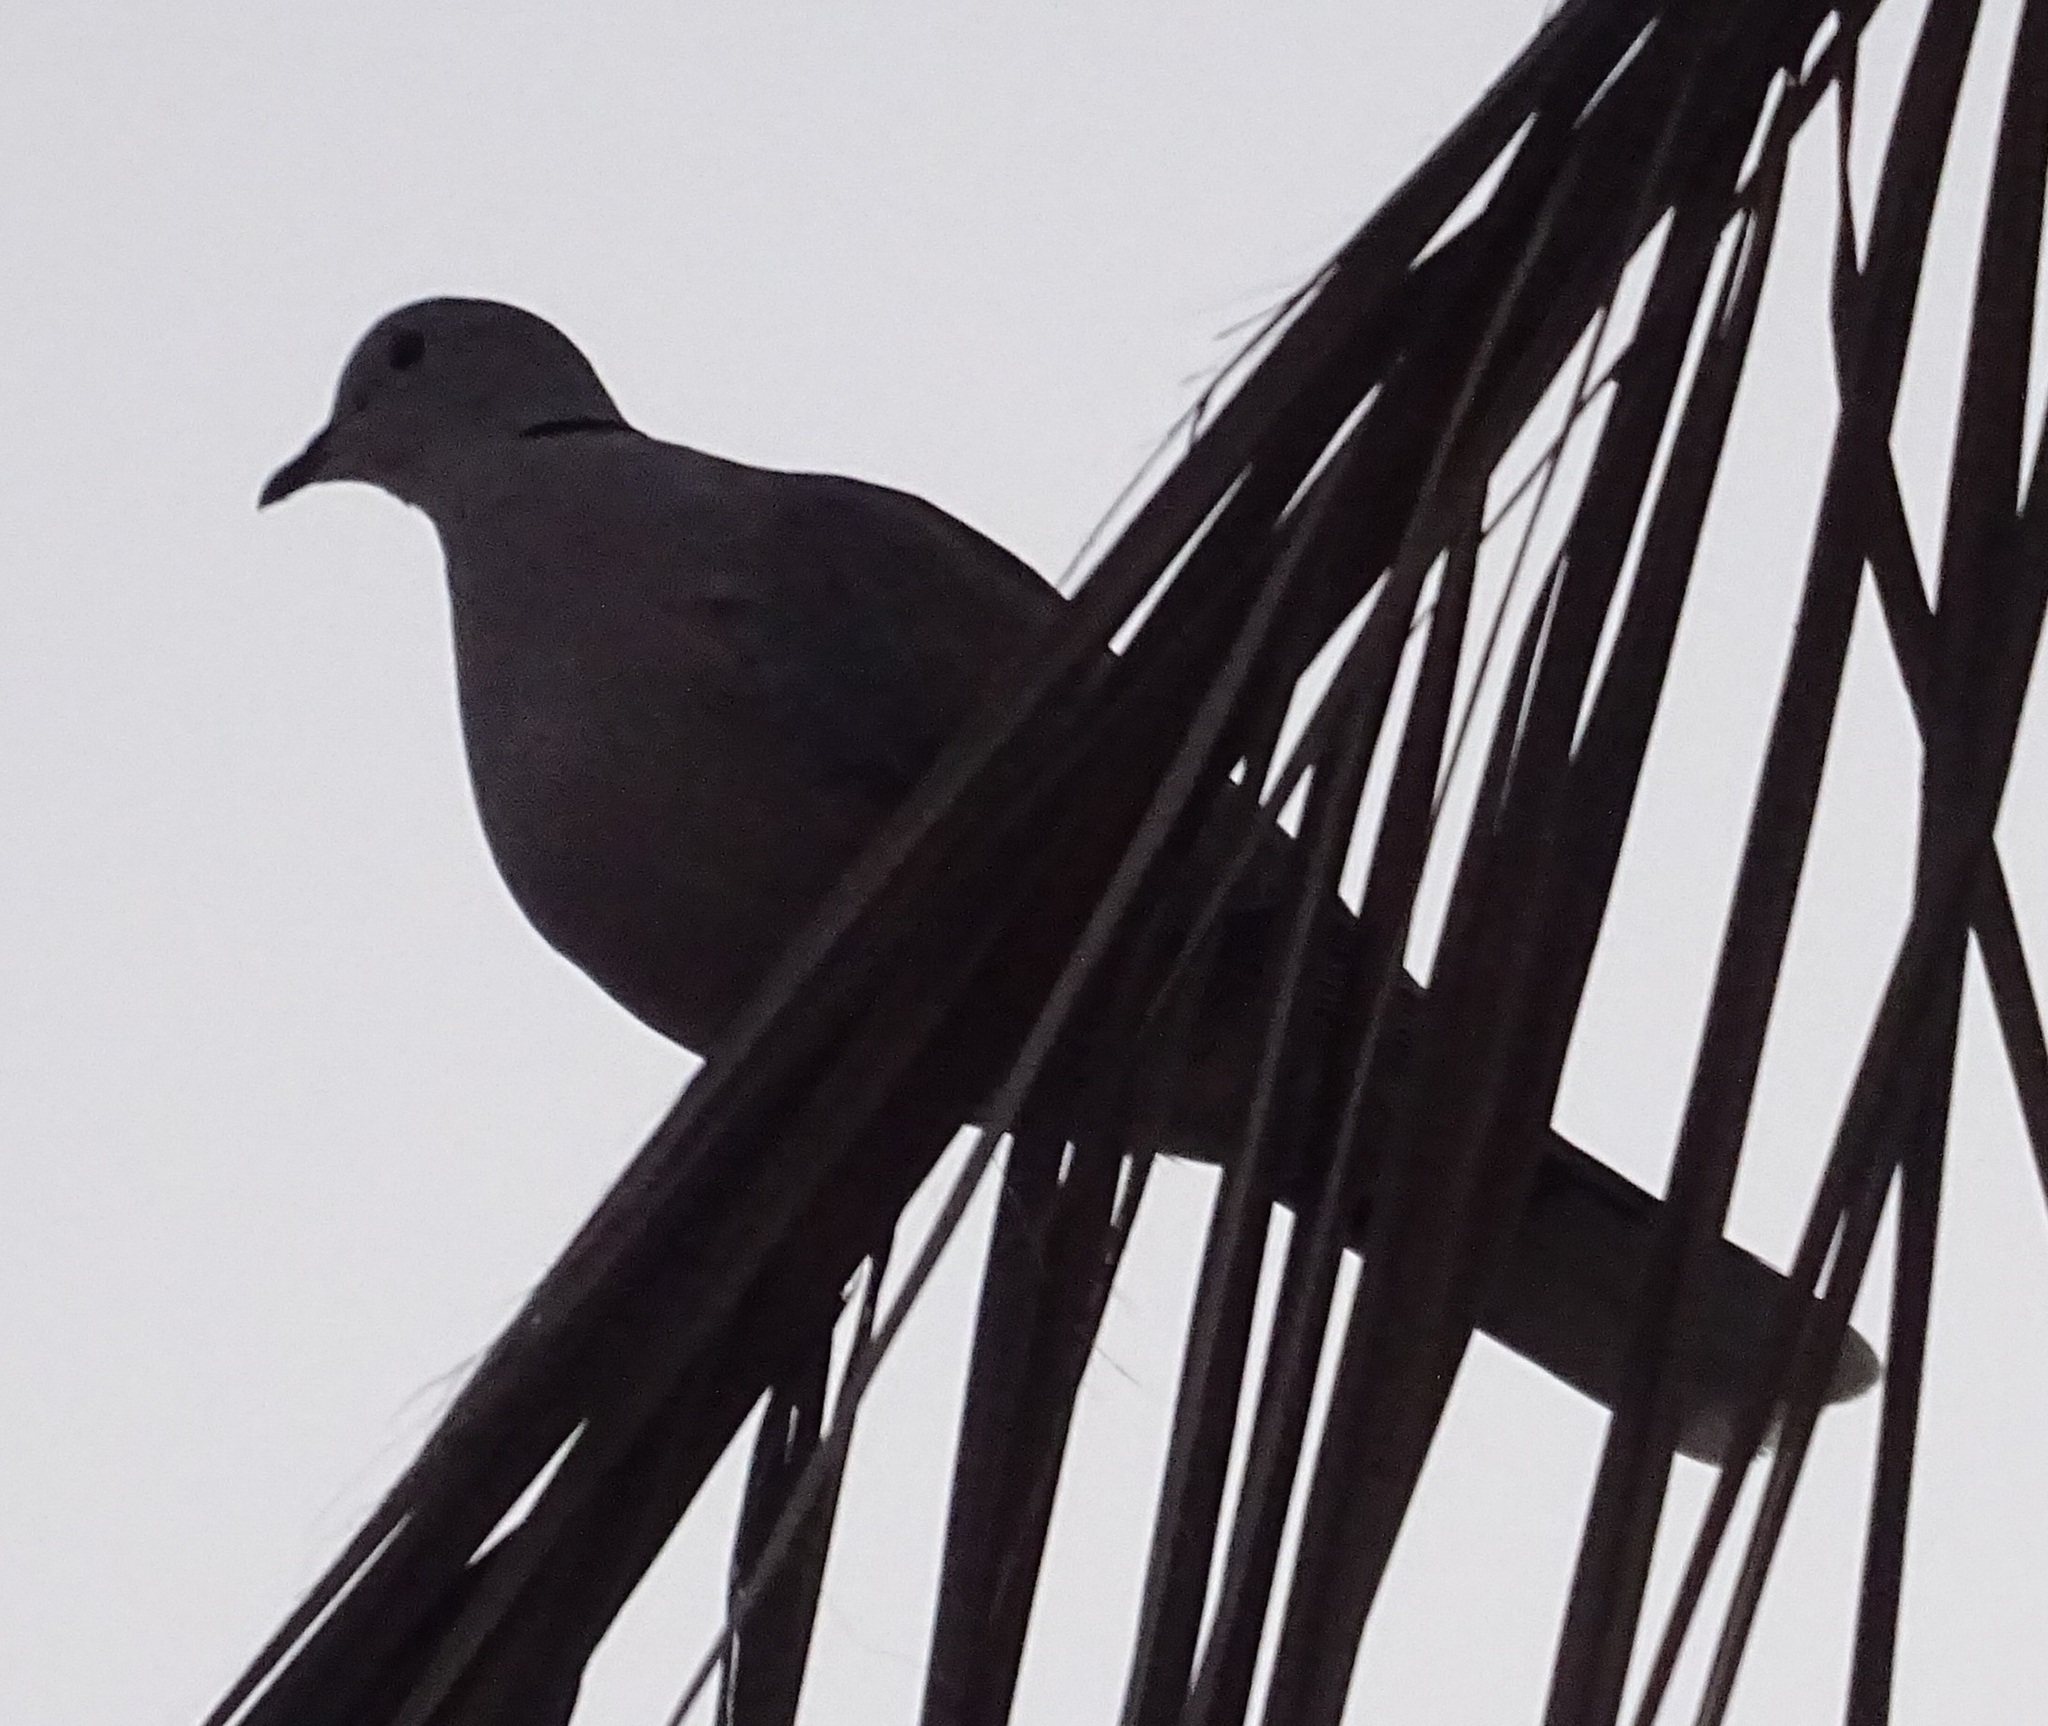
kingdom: Animalia
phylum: Chordata
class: Aves
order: Columbiformes
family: Columbidae
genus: Streptopelia
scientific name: Streptopelia decaocto
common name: Eurasian collared dove
